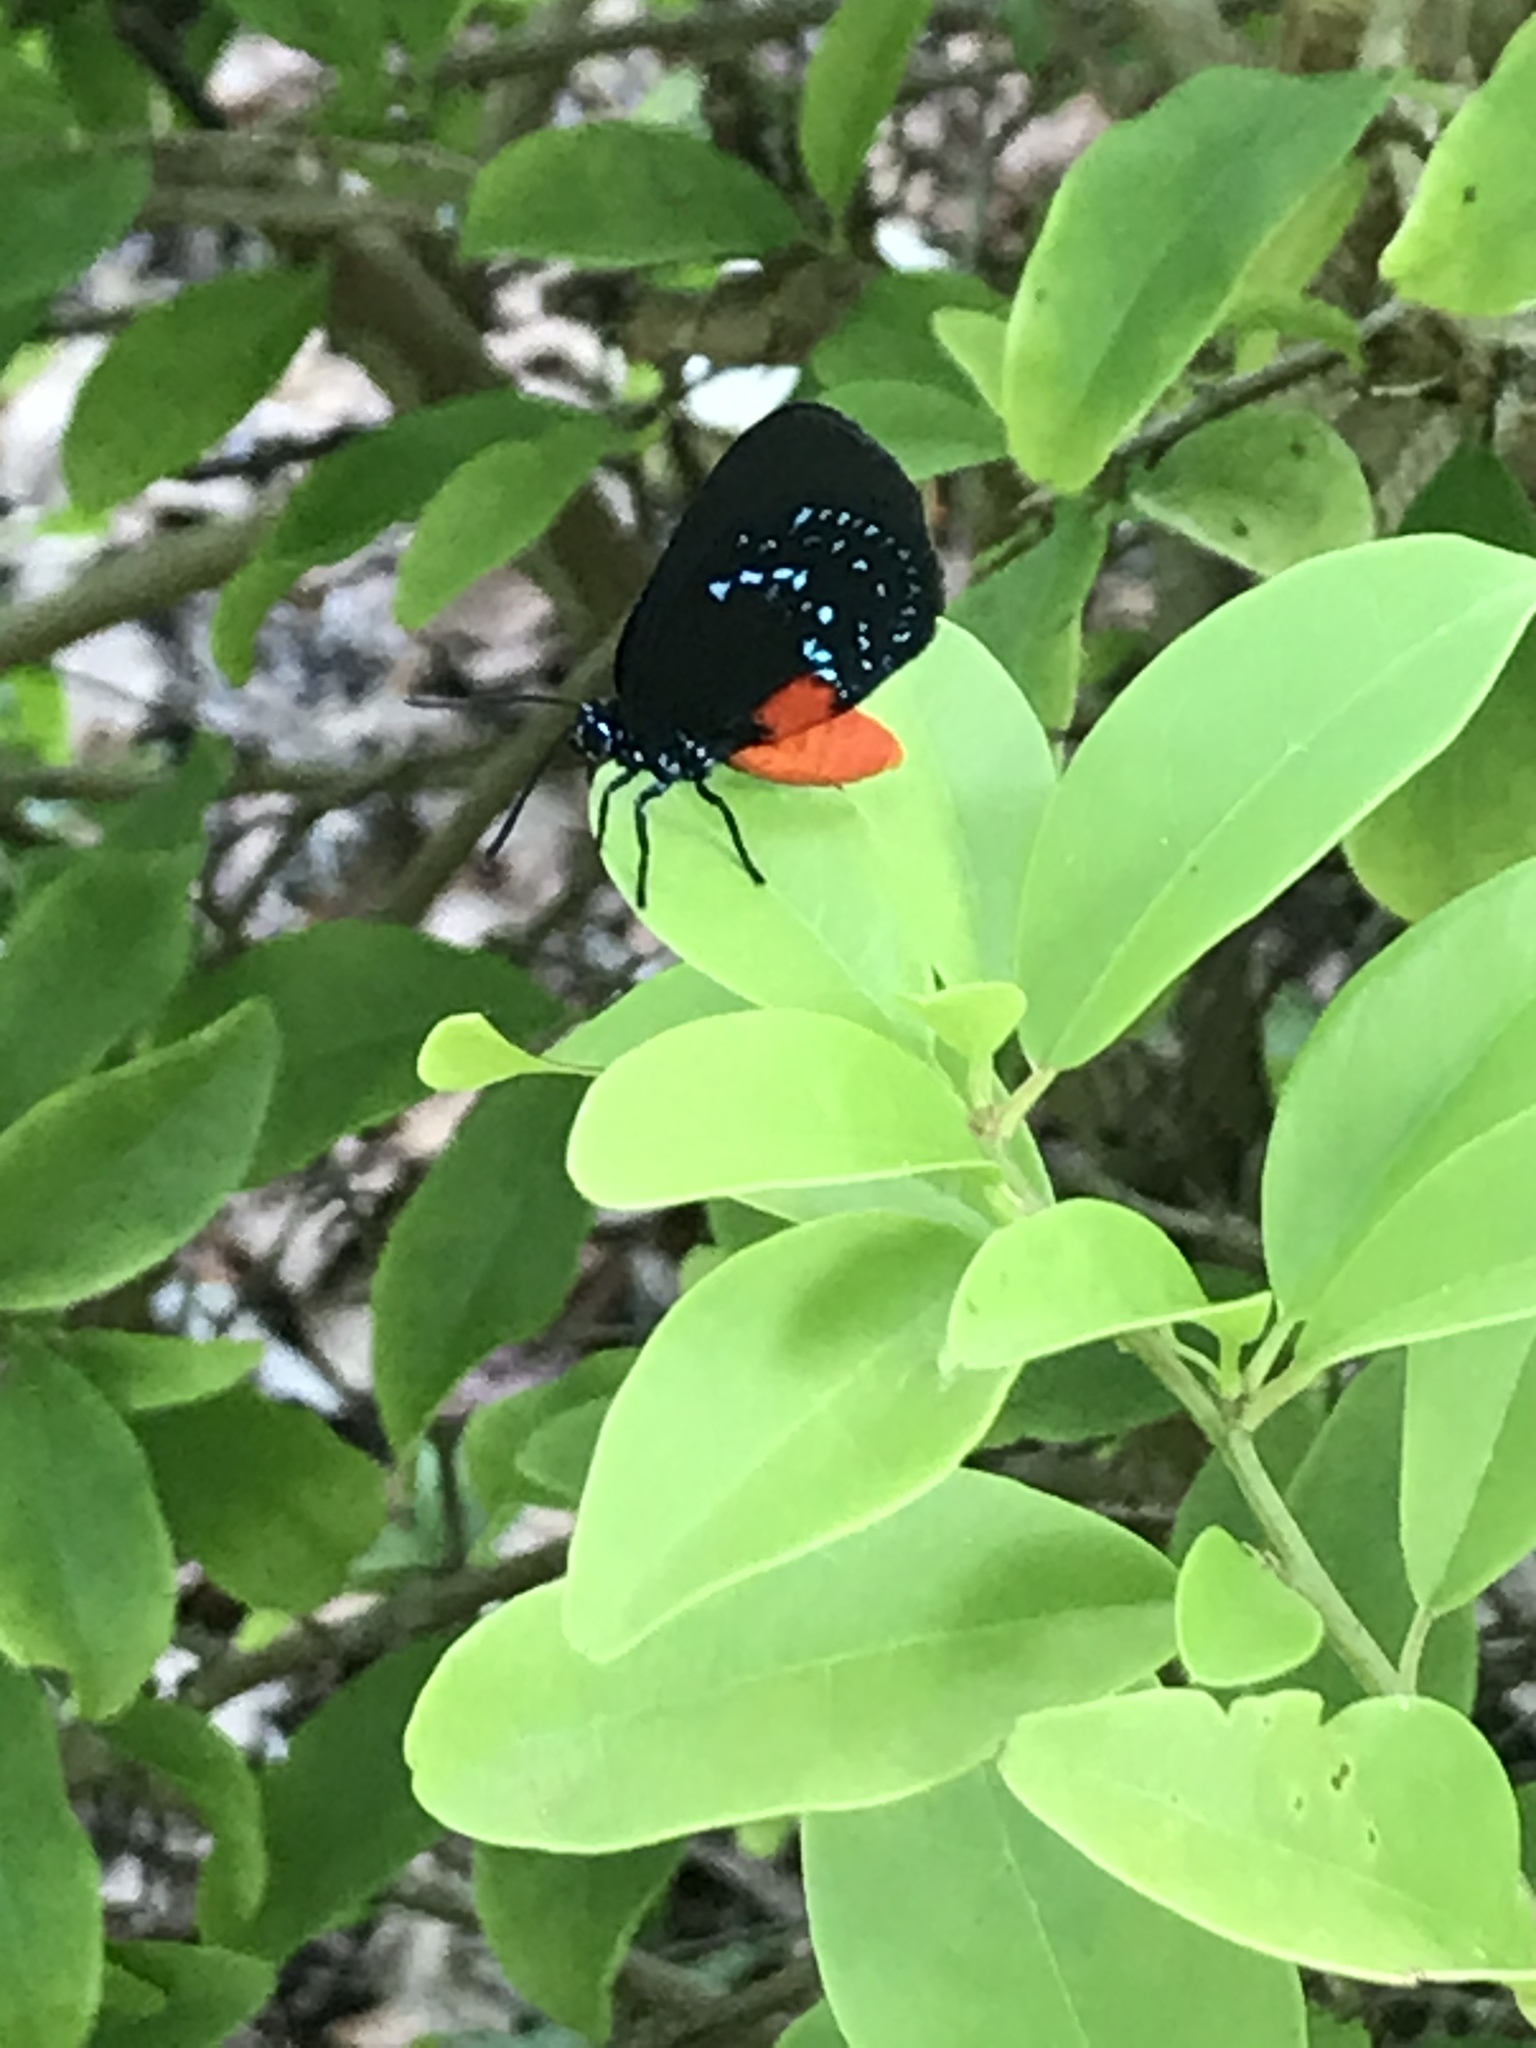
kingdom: Animalia
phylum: Arthropoda
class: Insecta
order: Lepidoptera
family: Lycaenidae
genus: Eumaeus
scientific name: Eumaeus atala
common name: Atala
